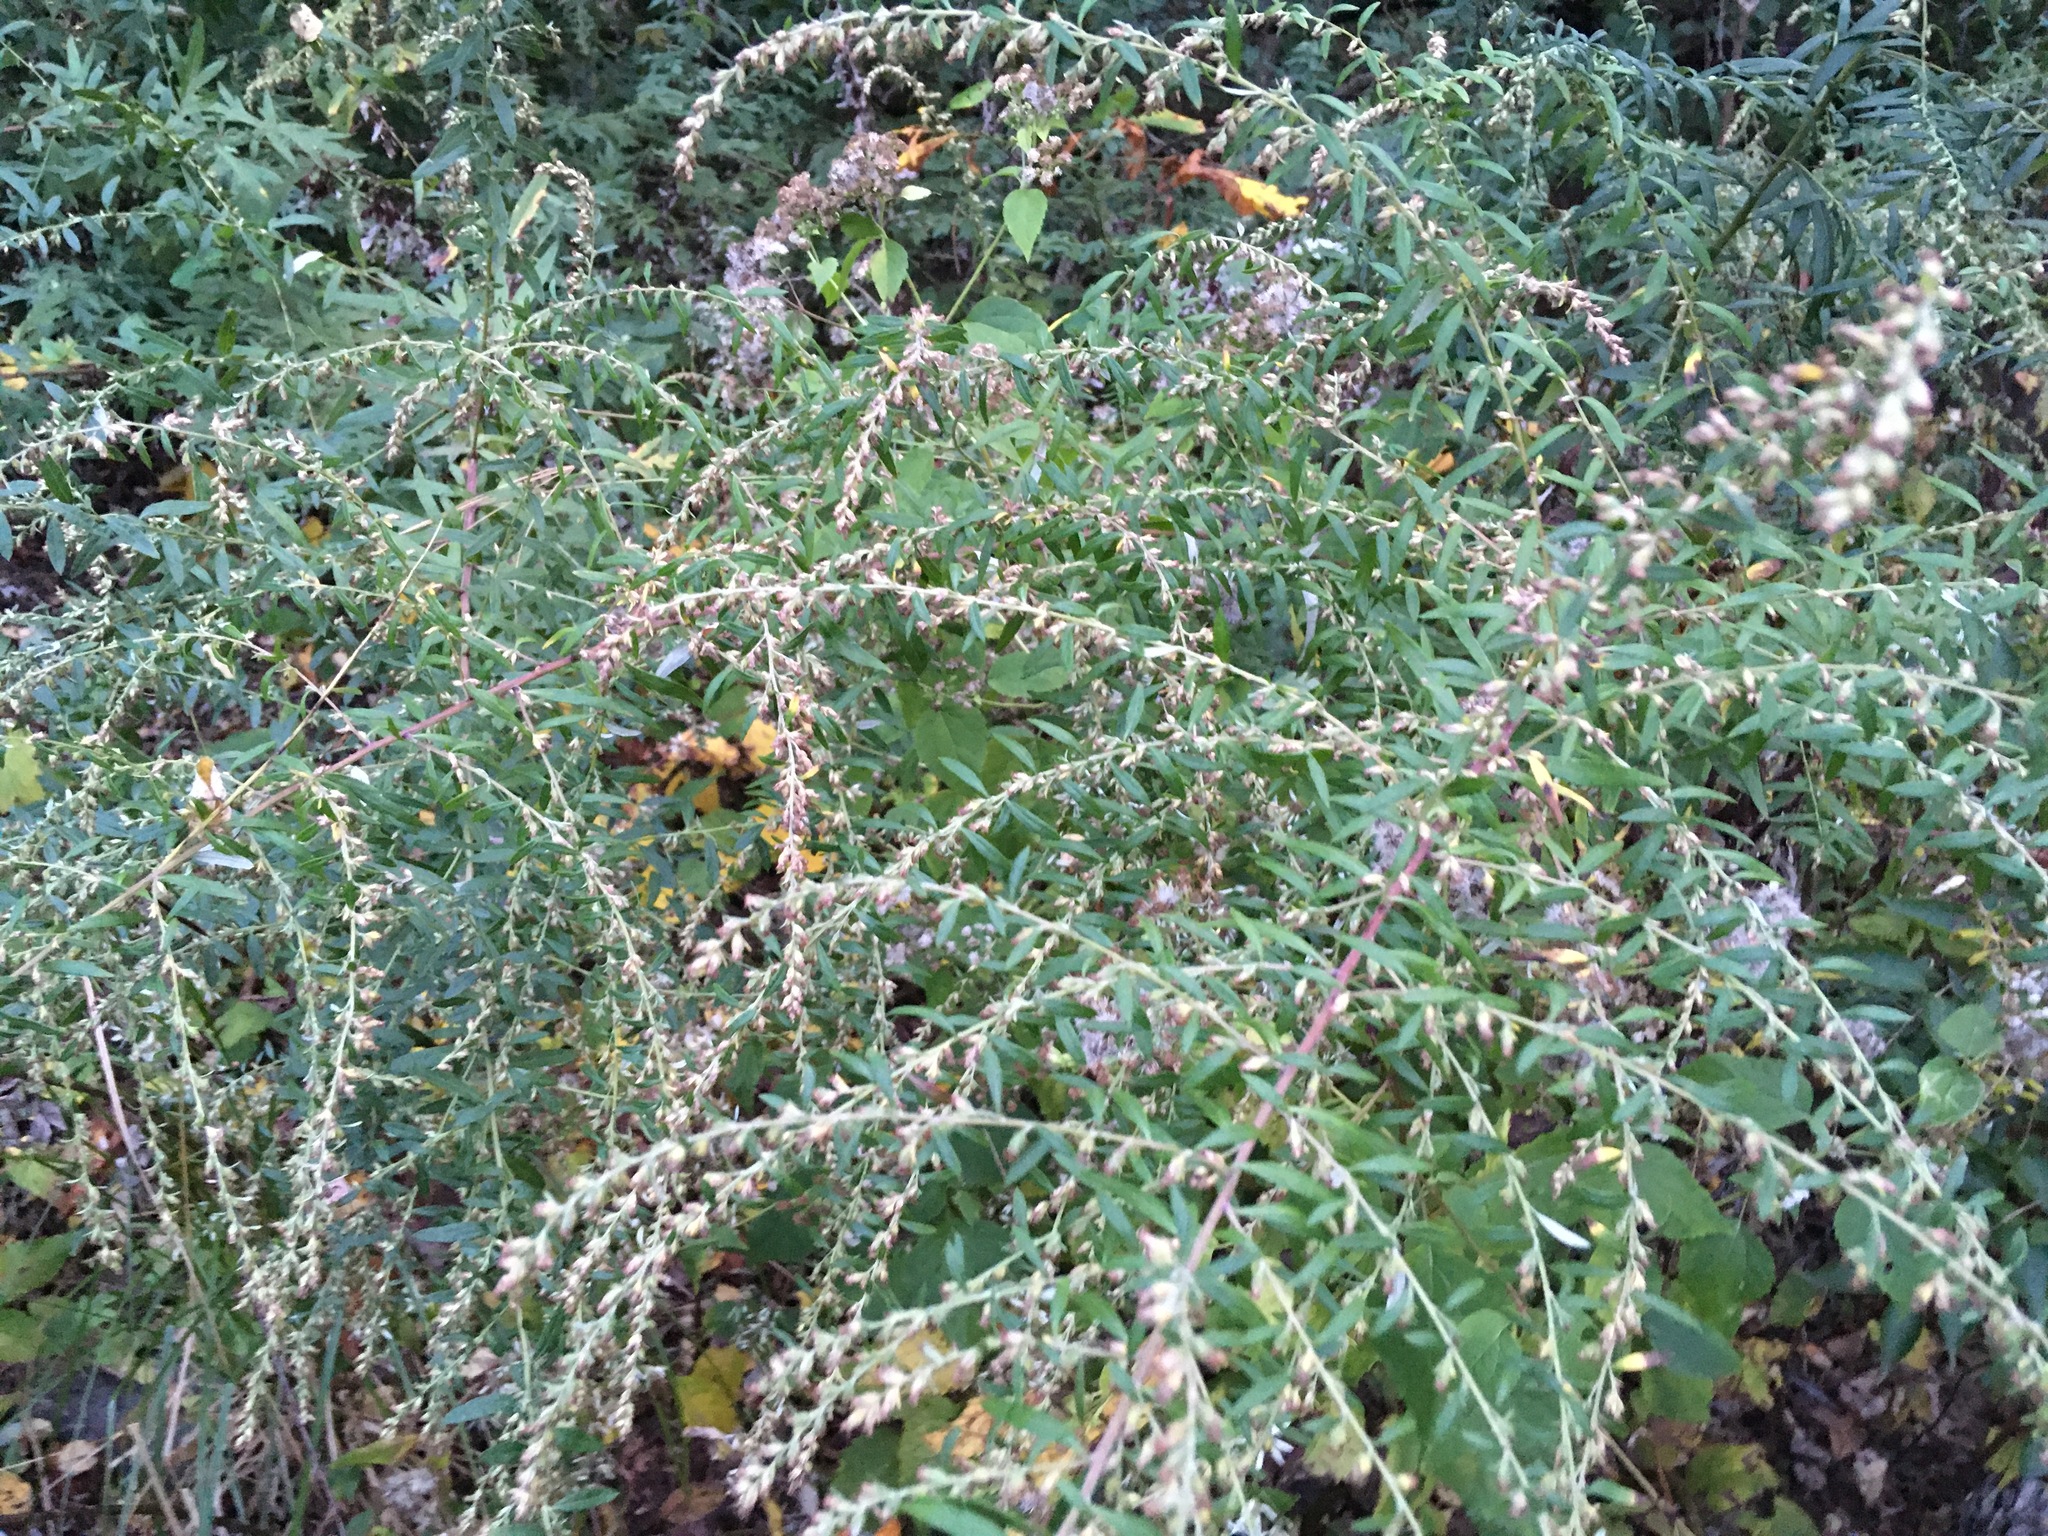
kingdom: Plantae
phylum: Tracheophyta
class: Magnoliopsida
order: Asterales
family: Asteraceae
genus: Artemisia
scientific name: Artemisia vulgaris
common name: Mugwort
